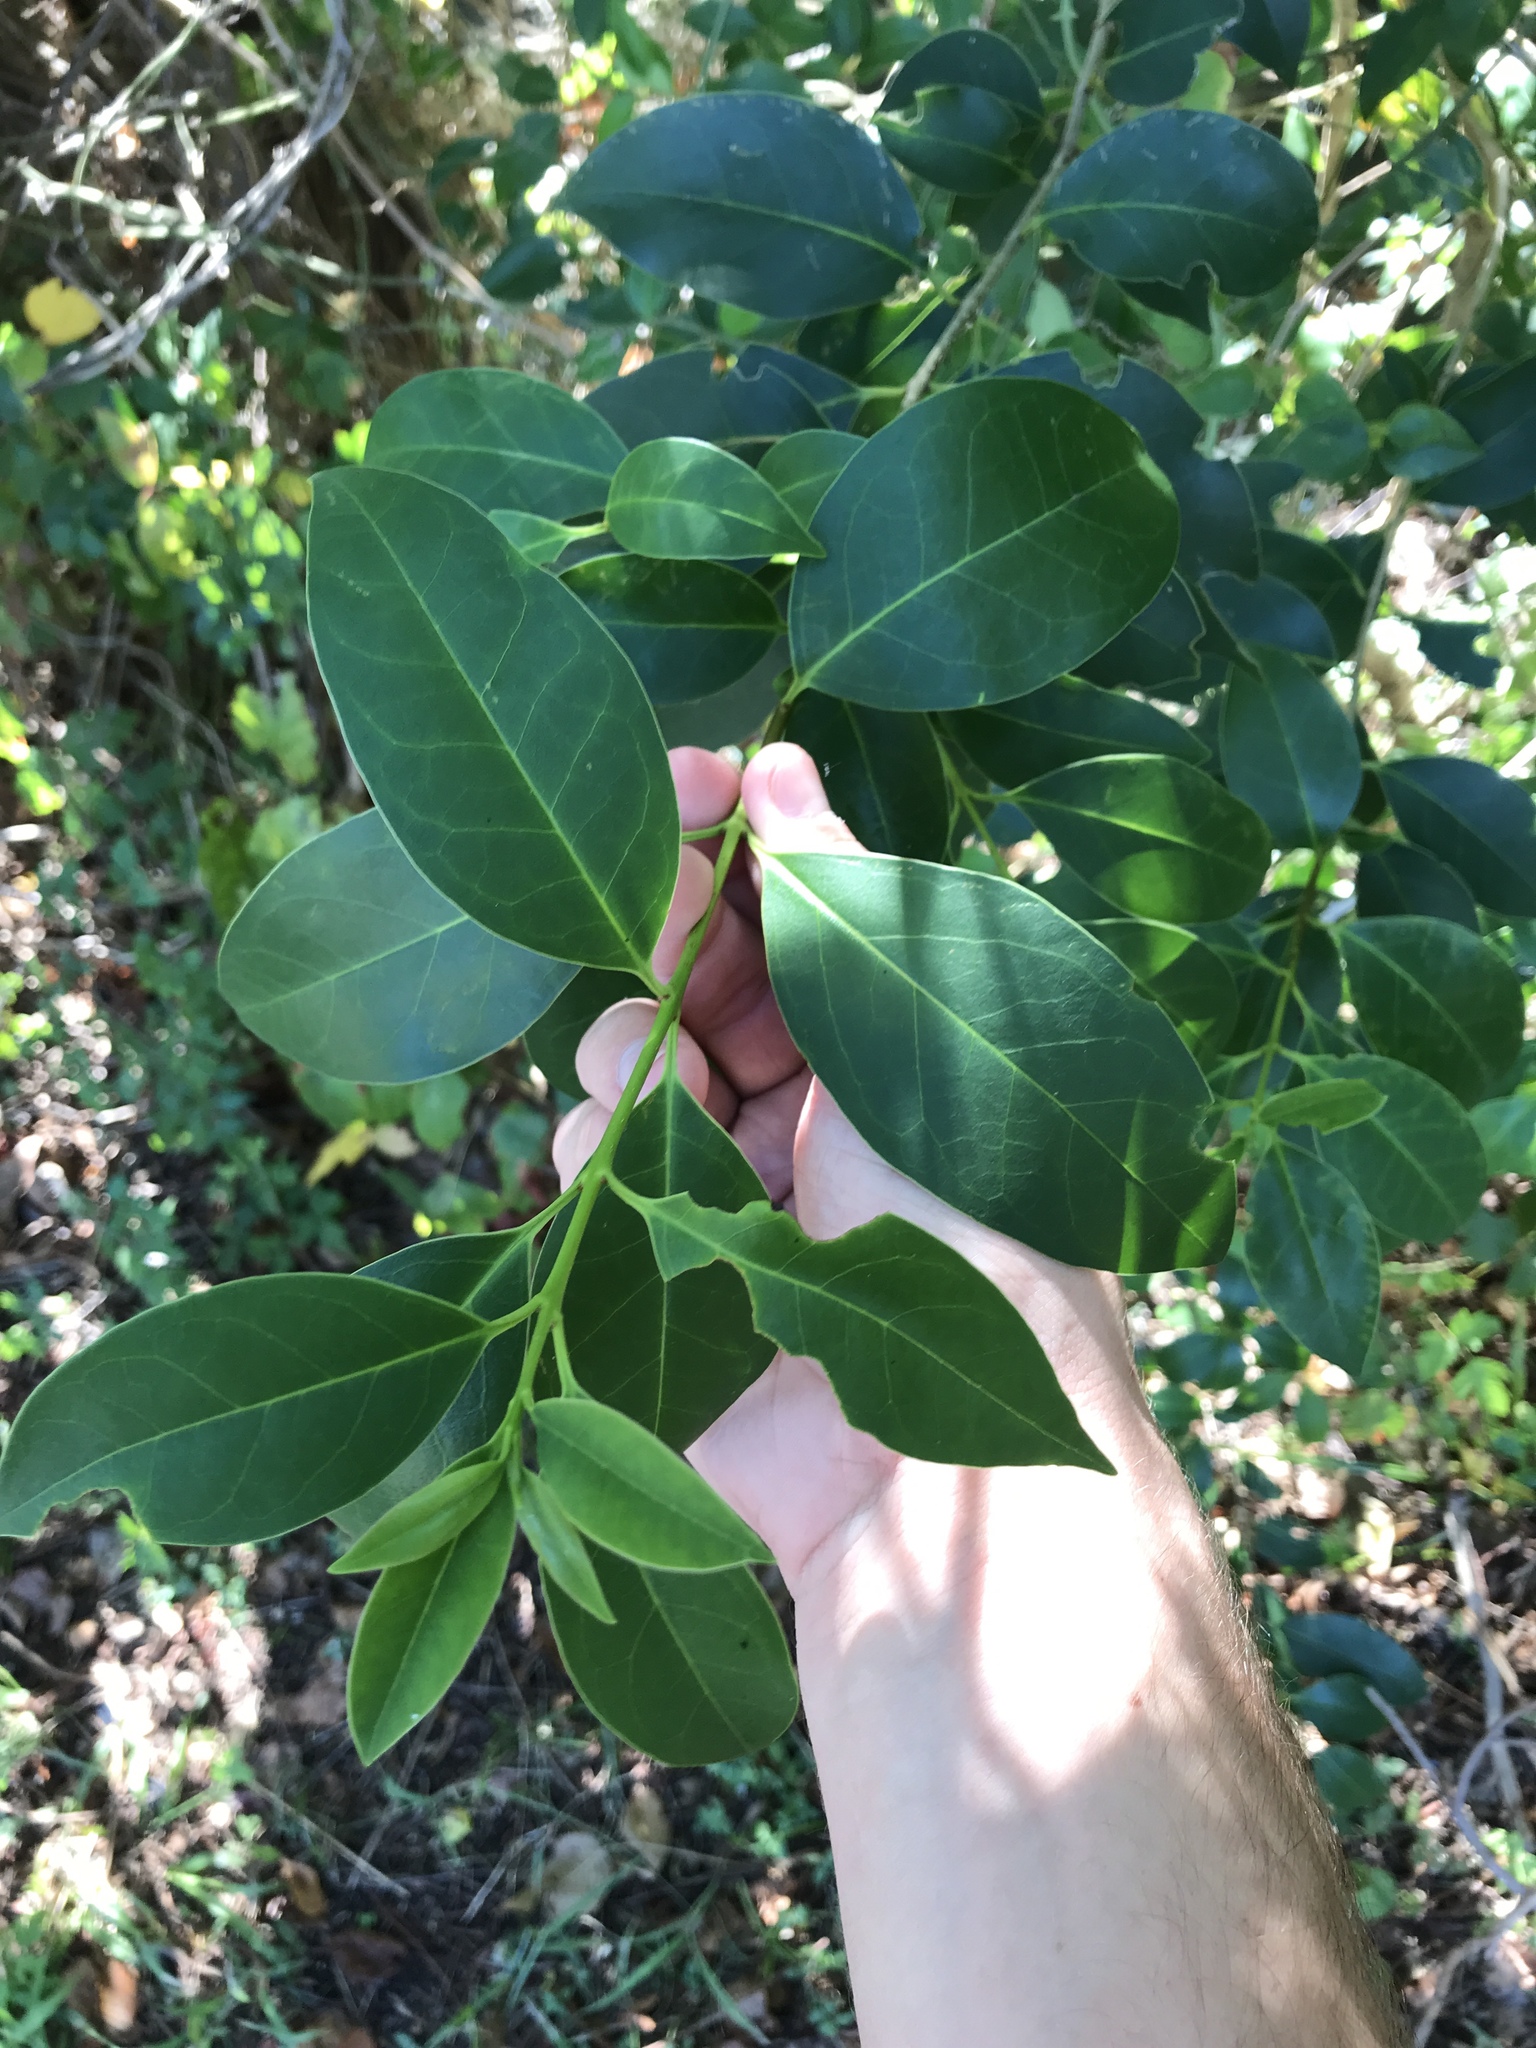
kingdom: Plantae
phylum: Tracheophyta
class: Magnoliopsida
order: Lamiales
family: Oleaceae
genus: Ligustrum
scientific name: Ligustrum lucidum
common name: Glossy privet
